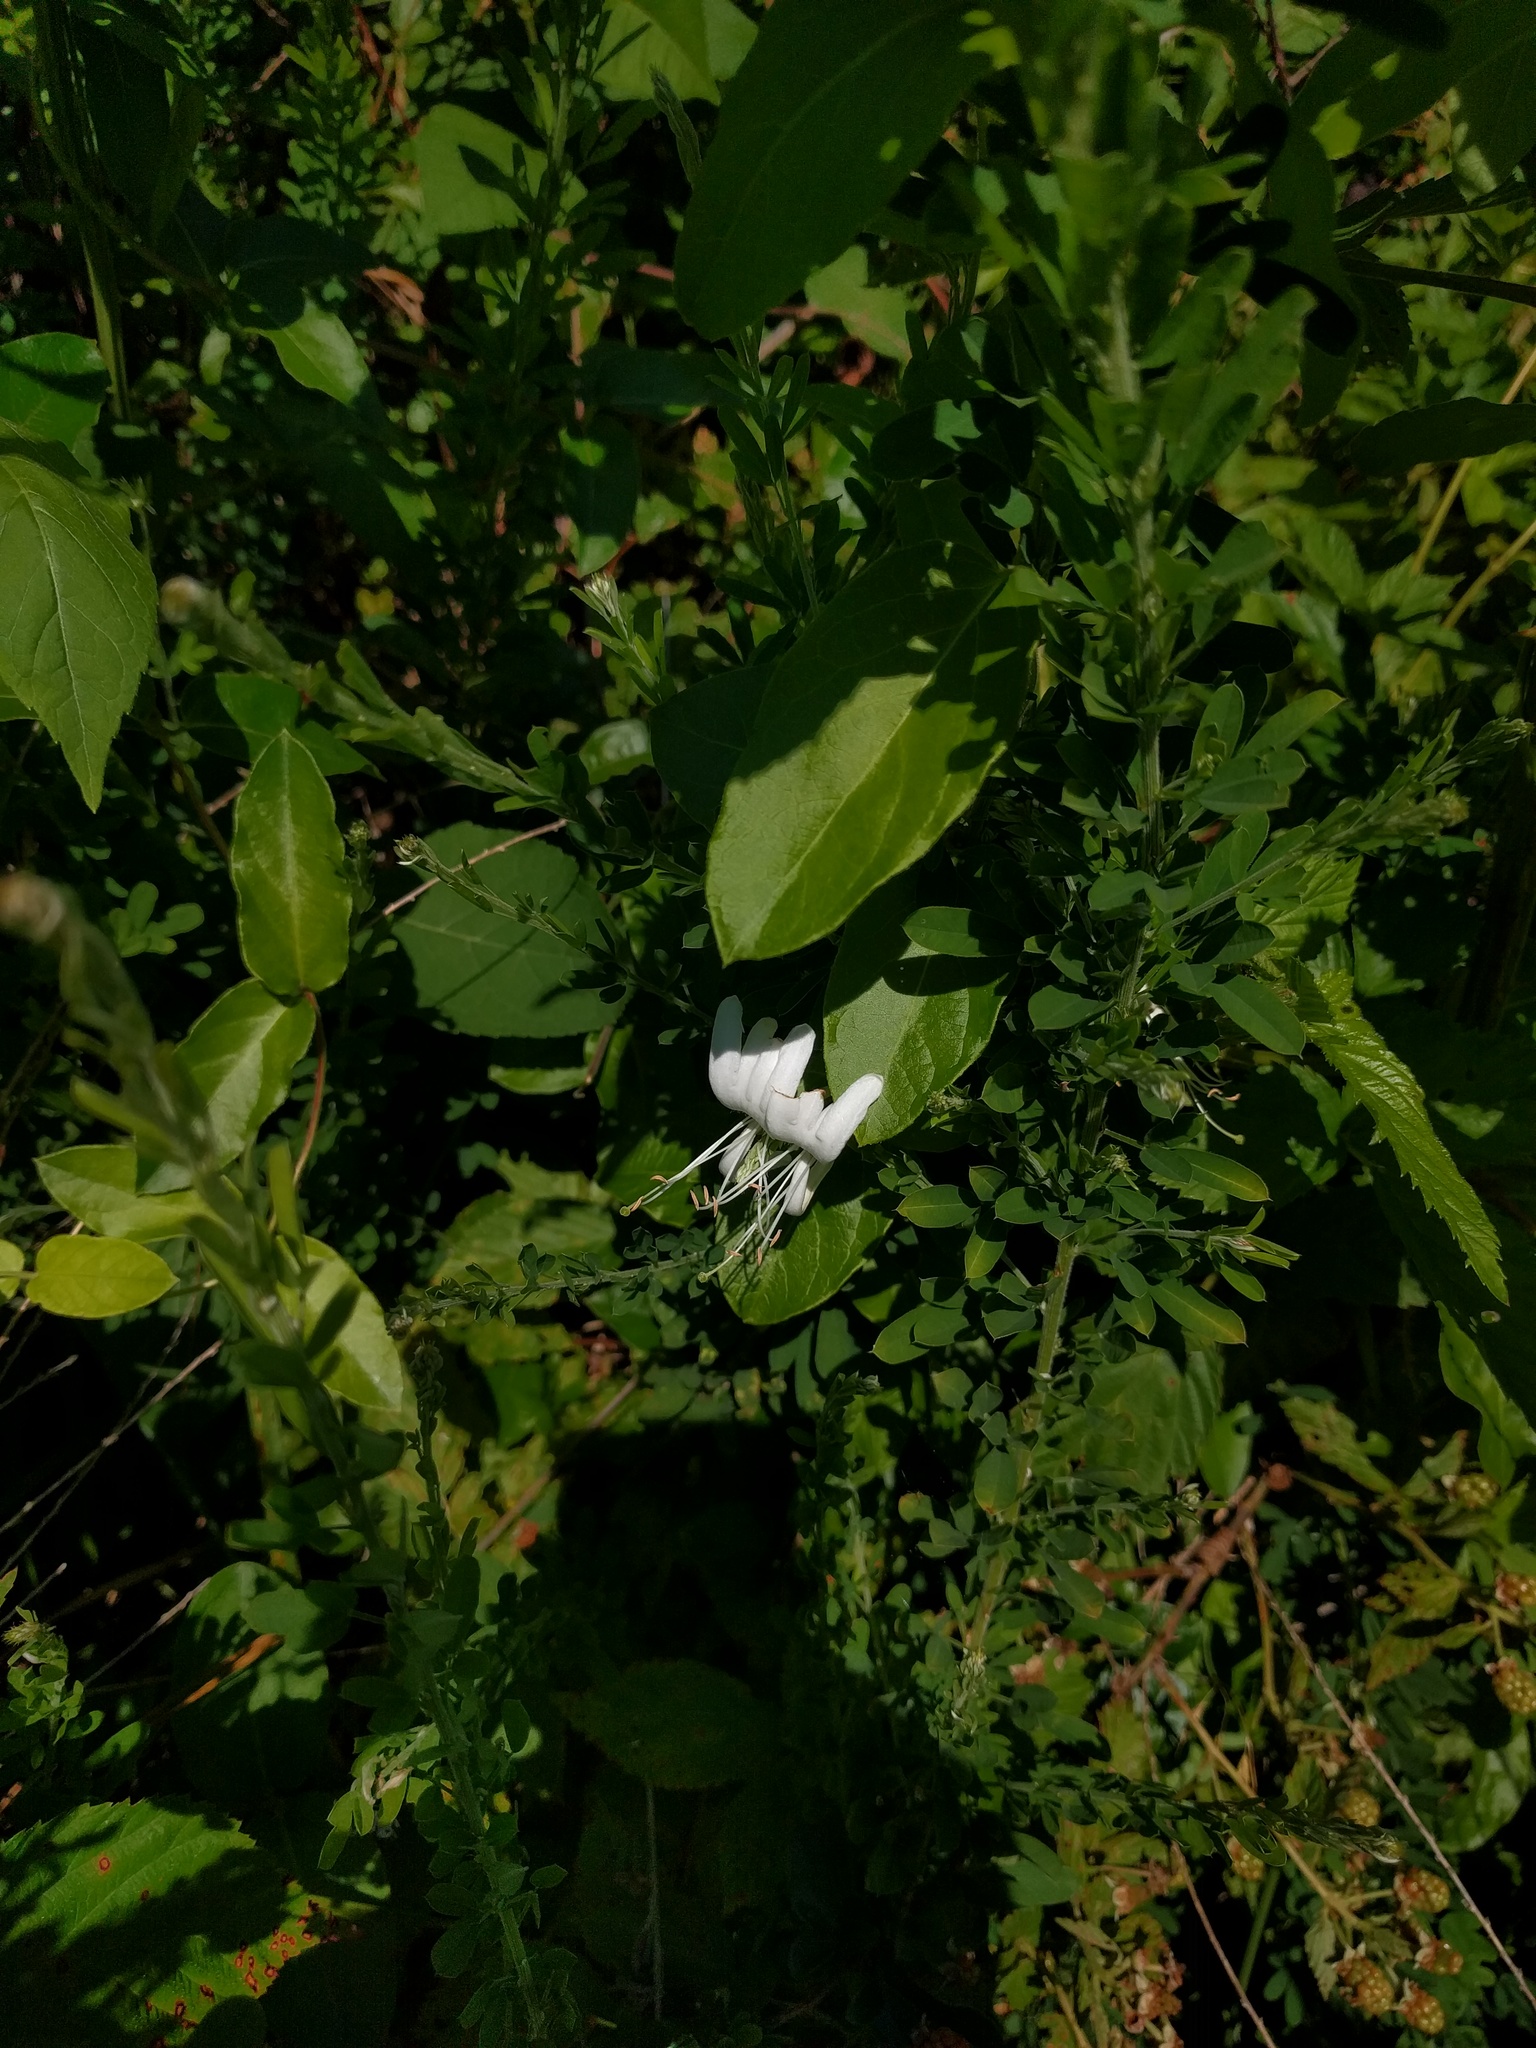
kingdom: Plantae
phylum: Tracheophyta
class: Magnoliopsida
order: Dipsacales
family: Caprifoliaceae
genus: Lonicera
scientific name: Lonicera japonica
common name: Japanese honeysuckle
